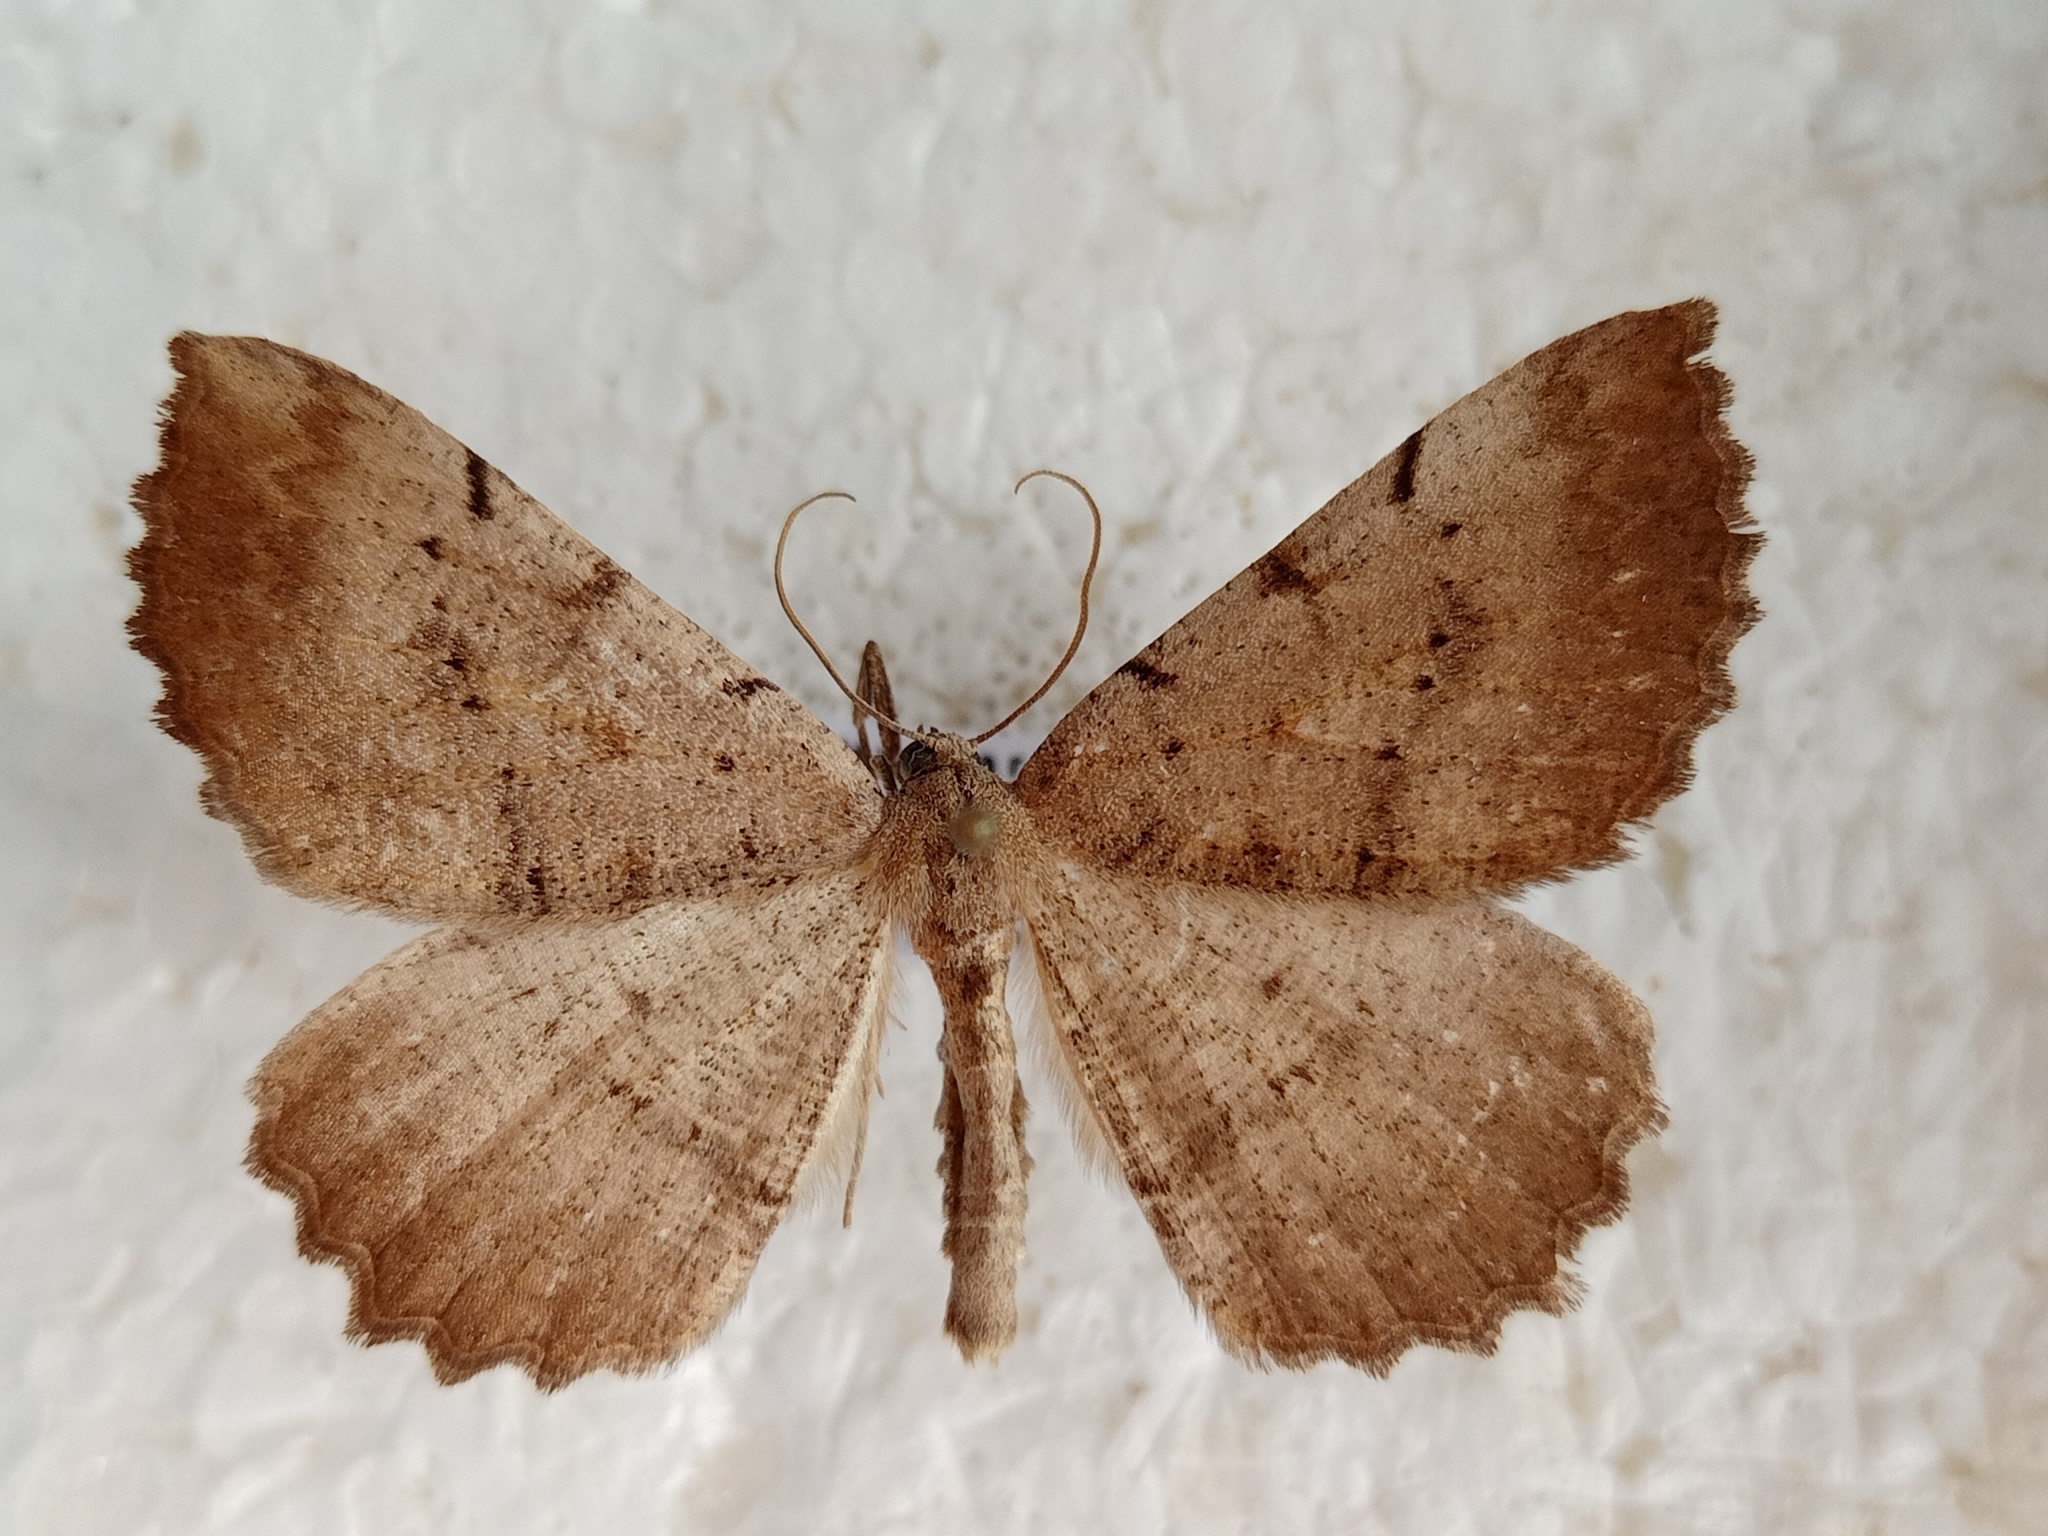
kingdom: Animalia
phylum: Arthropoda
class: Insecta
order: Lepidoptera
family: Geometridae
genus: Odontognophos
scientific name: Odontognophos dumetata
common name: Irish annulet
